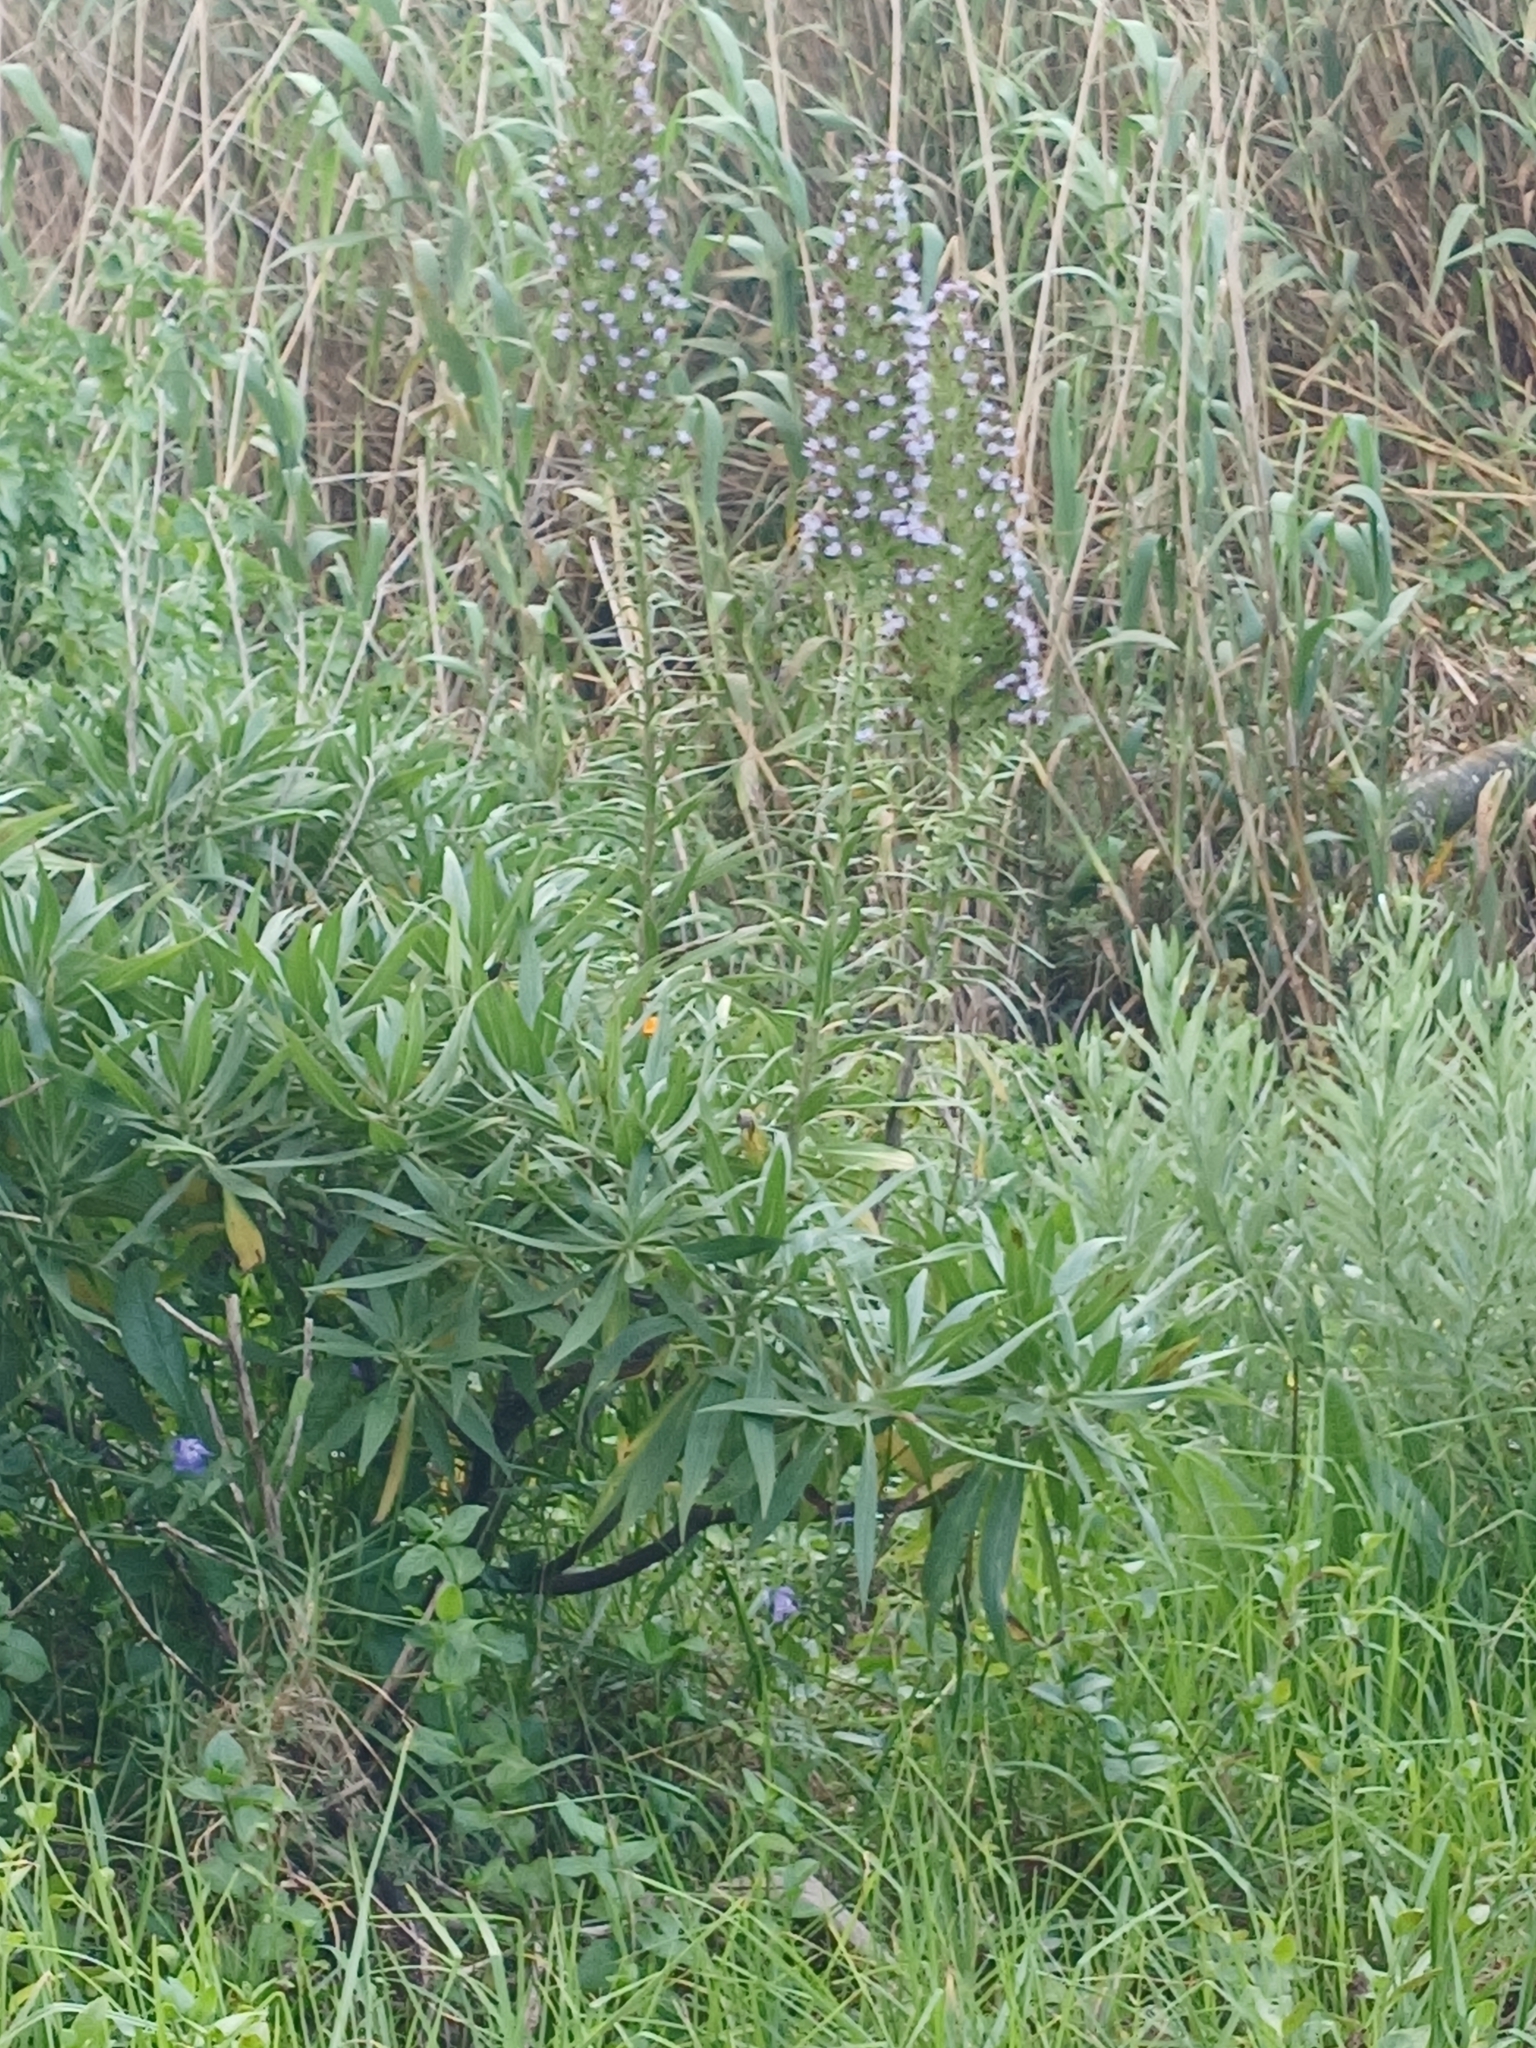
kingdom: Plantae
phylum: Tracheophyta
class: Magnoliopsida
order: Boraginales
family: Boraginaceae
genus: Echium
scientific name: Echium candicans
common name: Pride of madeira
